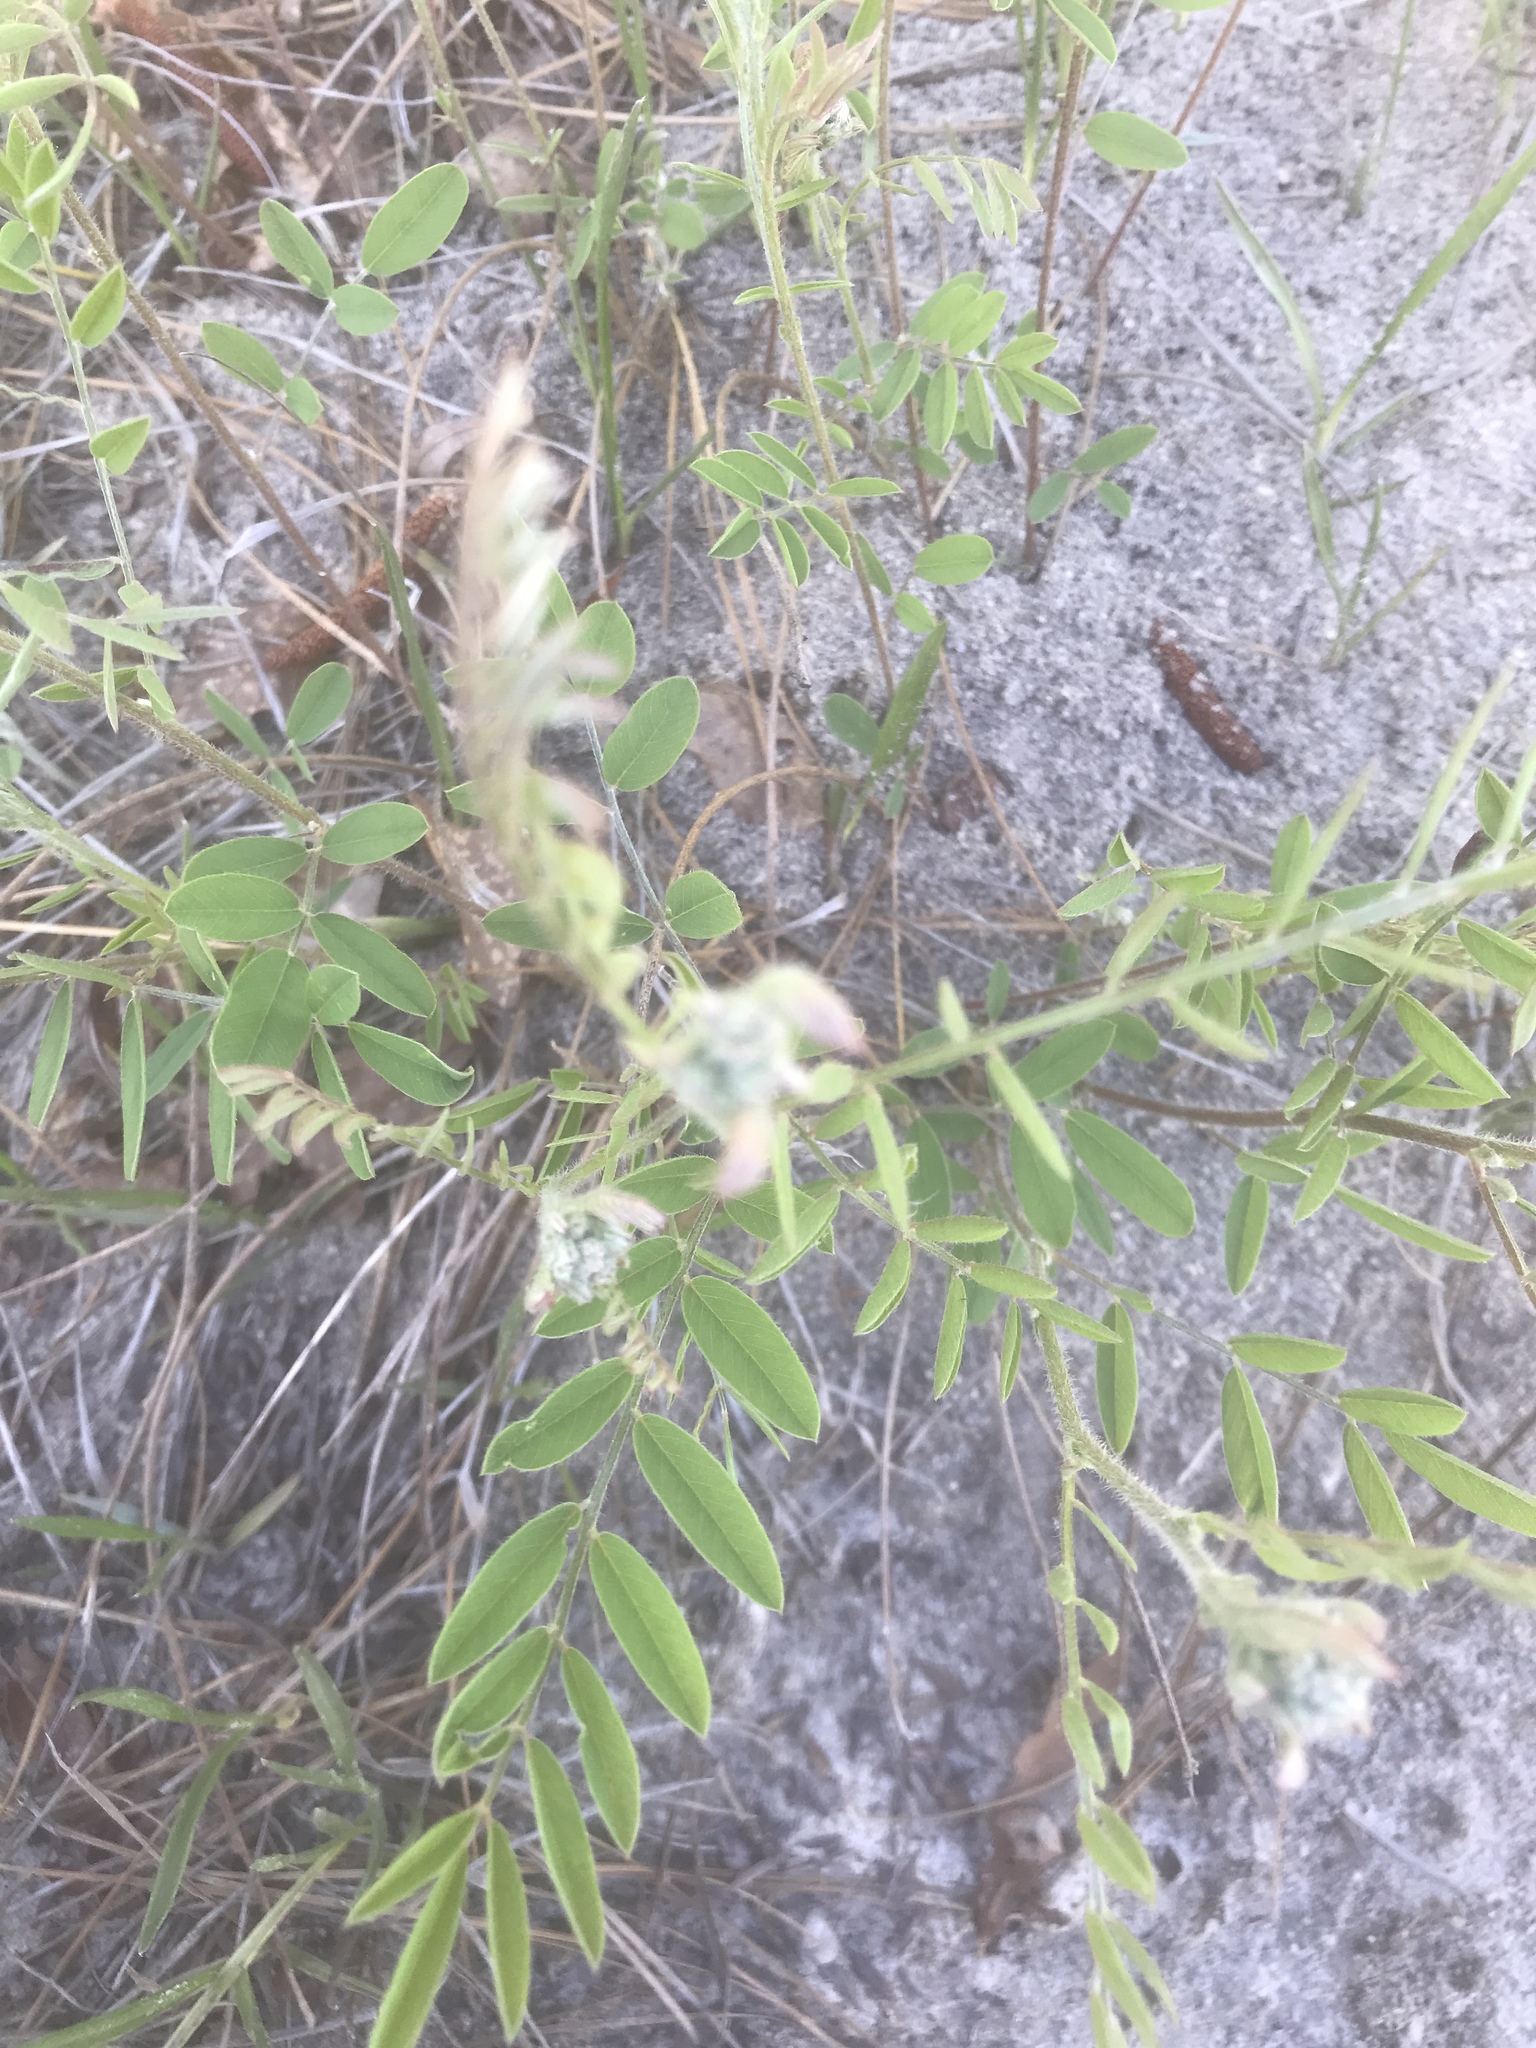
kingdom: Plantae
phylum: Tracheophyta
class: Magnoliopsida
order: Fabales
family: Fabaceae
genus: Tephrosia
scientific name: Tephrosia virginiana
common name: Rabbit-pea
